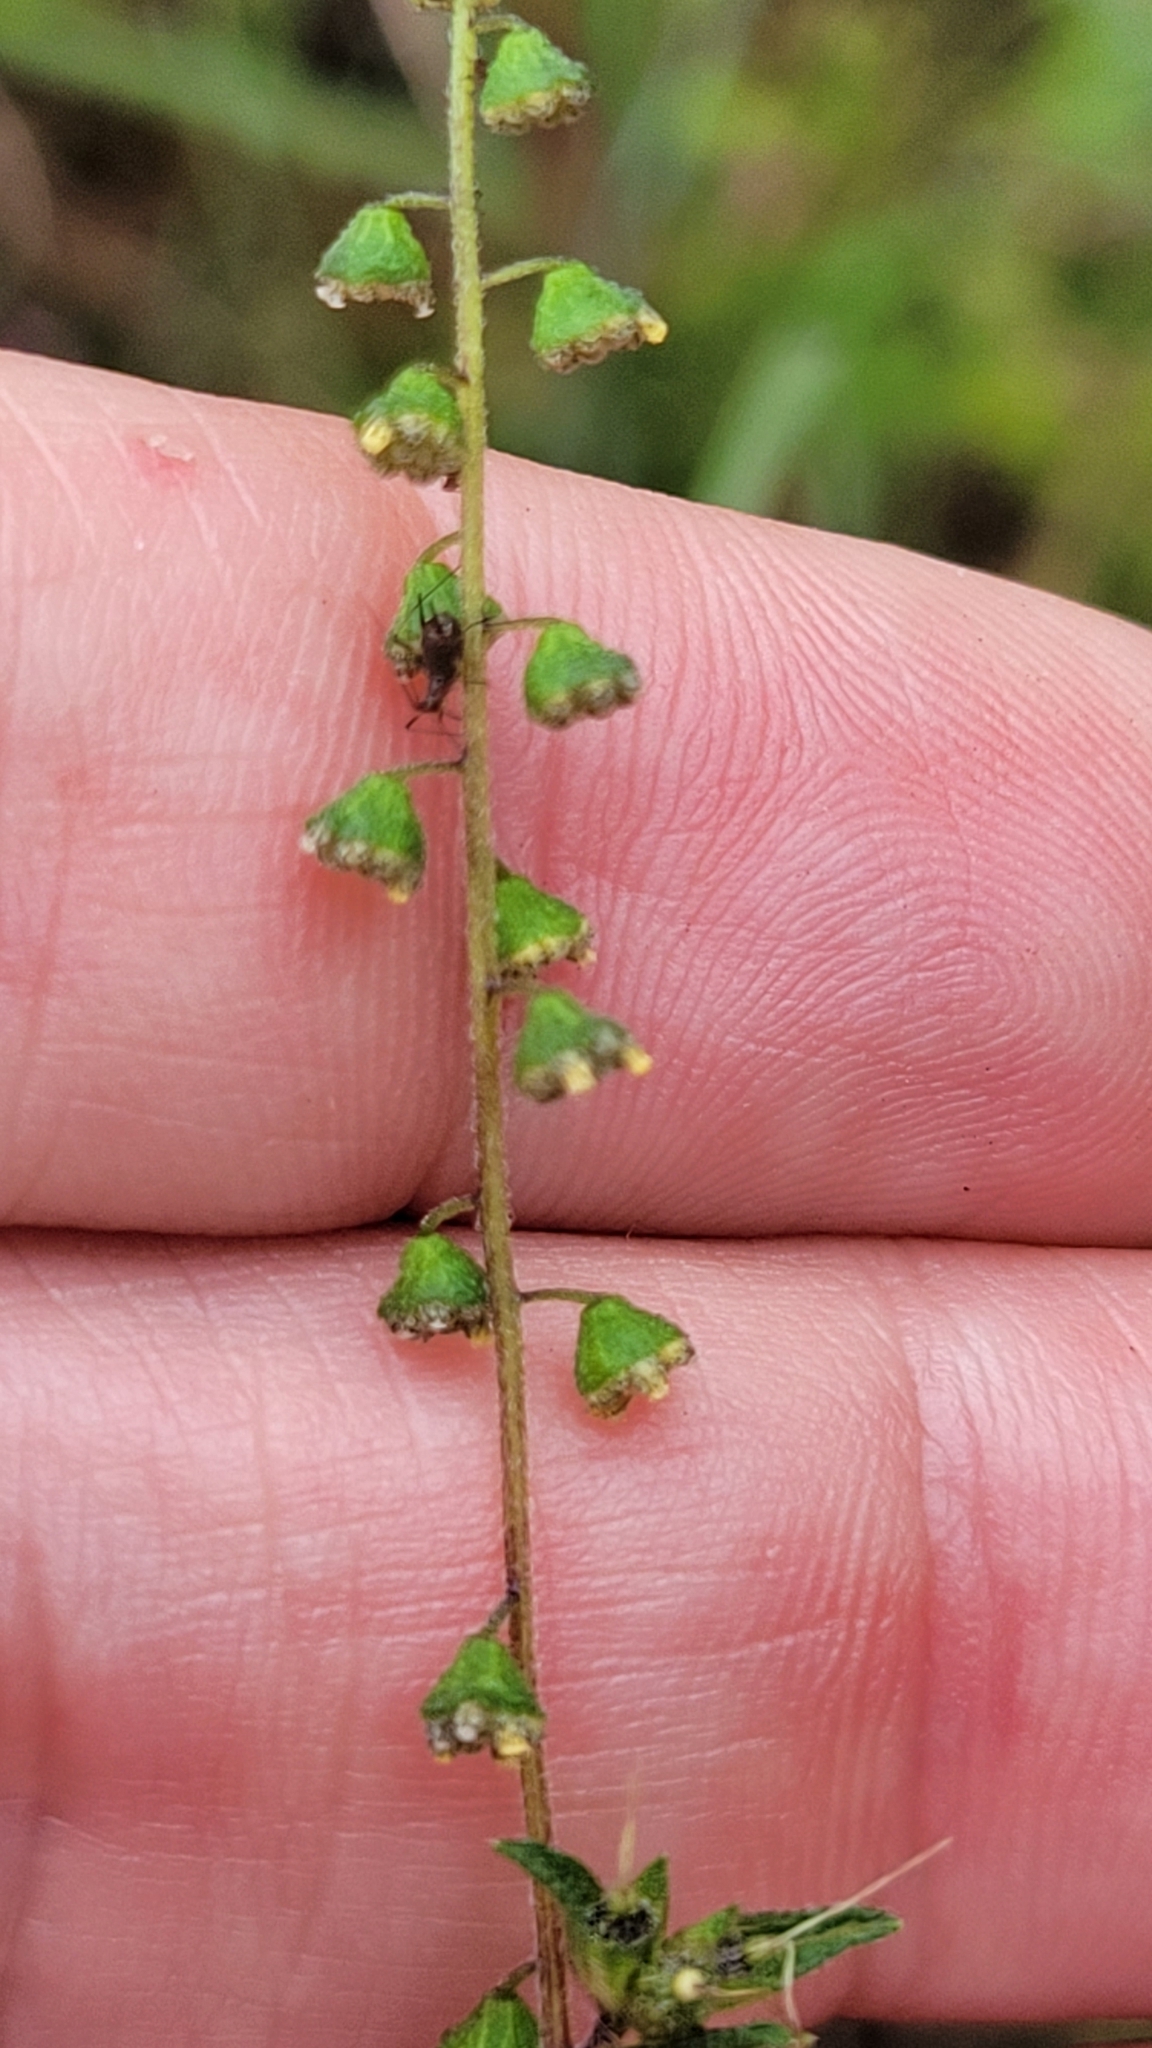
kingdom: Plantae
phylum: Tracheophyta
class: Magnoliopsida
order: Asterales
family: Asteraceae
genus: Ambrosia
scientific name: Ambrosia artemisiifolia
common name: Annual ragweed
